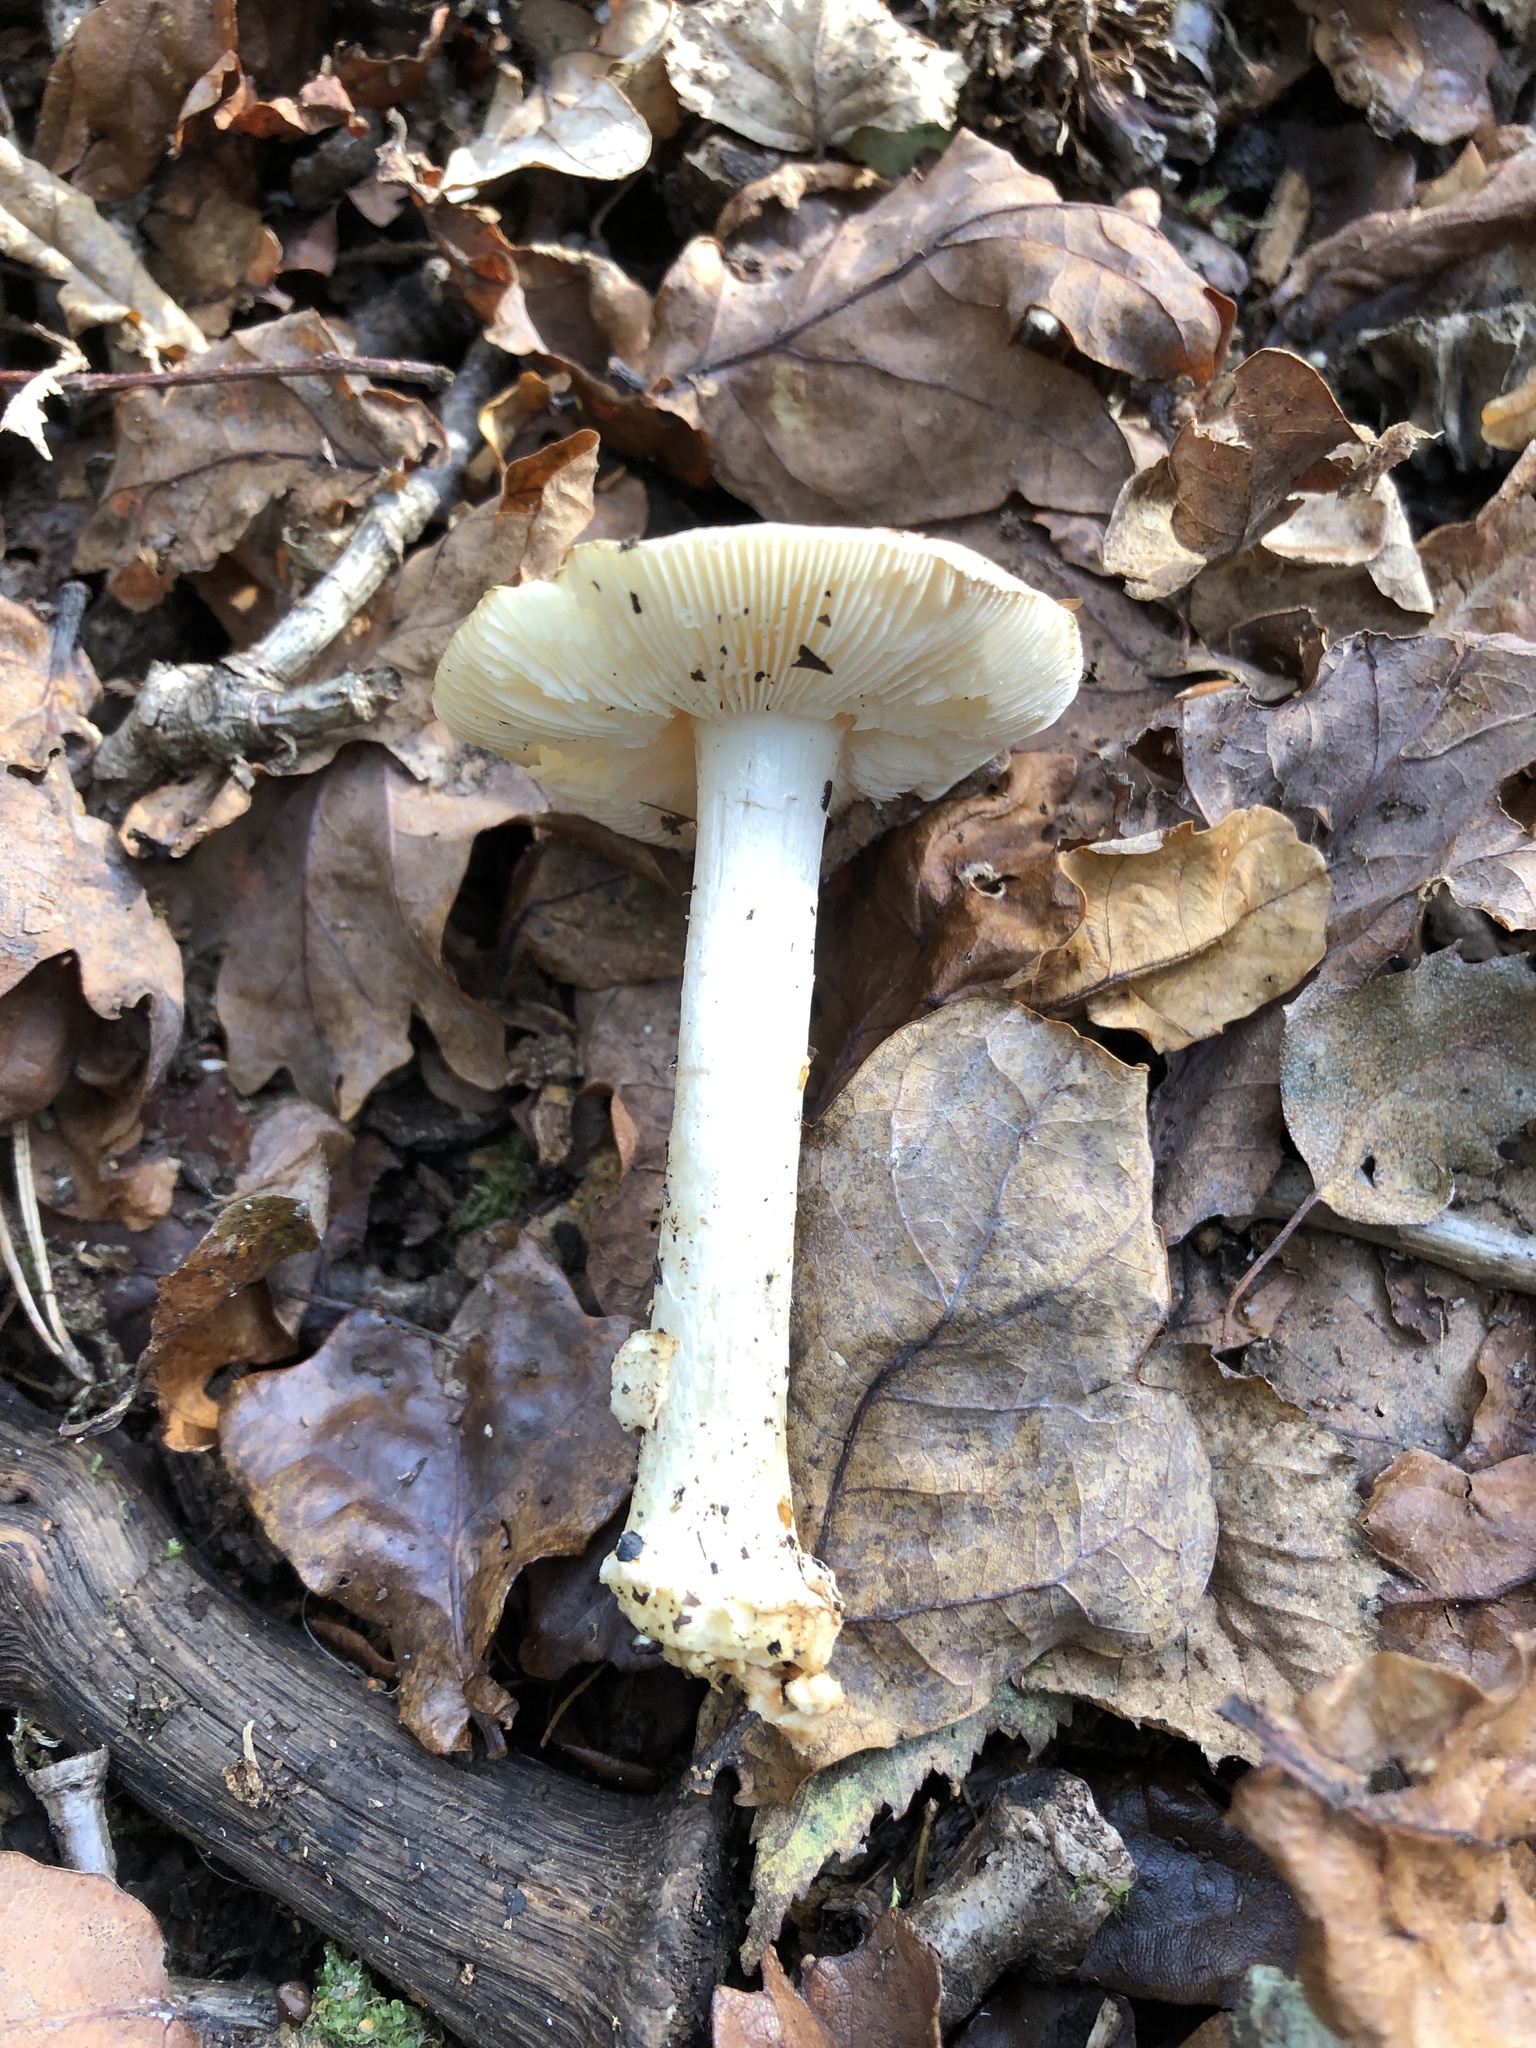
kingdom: Fungi
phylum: Basidiomycota
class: Agaricomycetes
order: Agaricales
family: Amanitaceae
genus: Amanita
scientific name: Amanita citrina
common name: False death-cap
